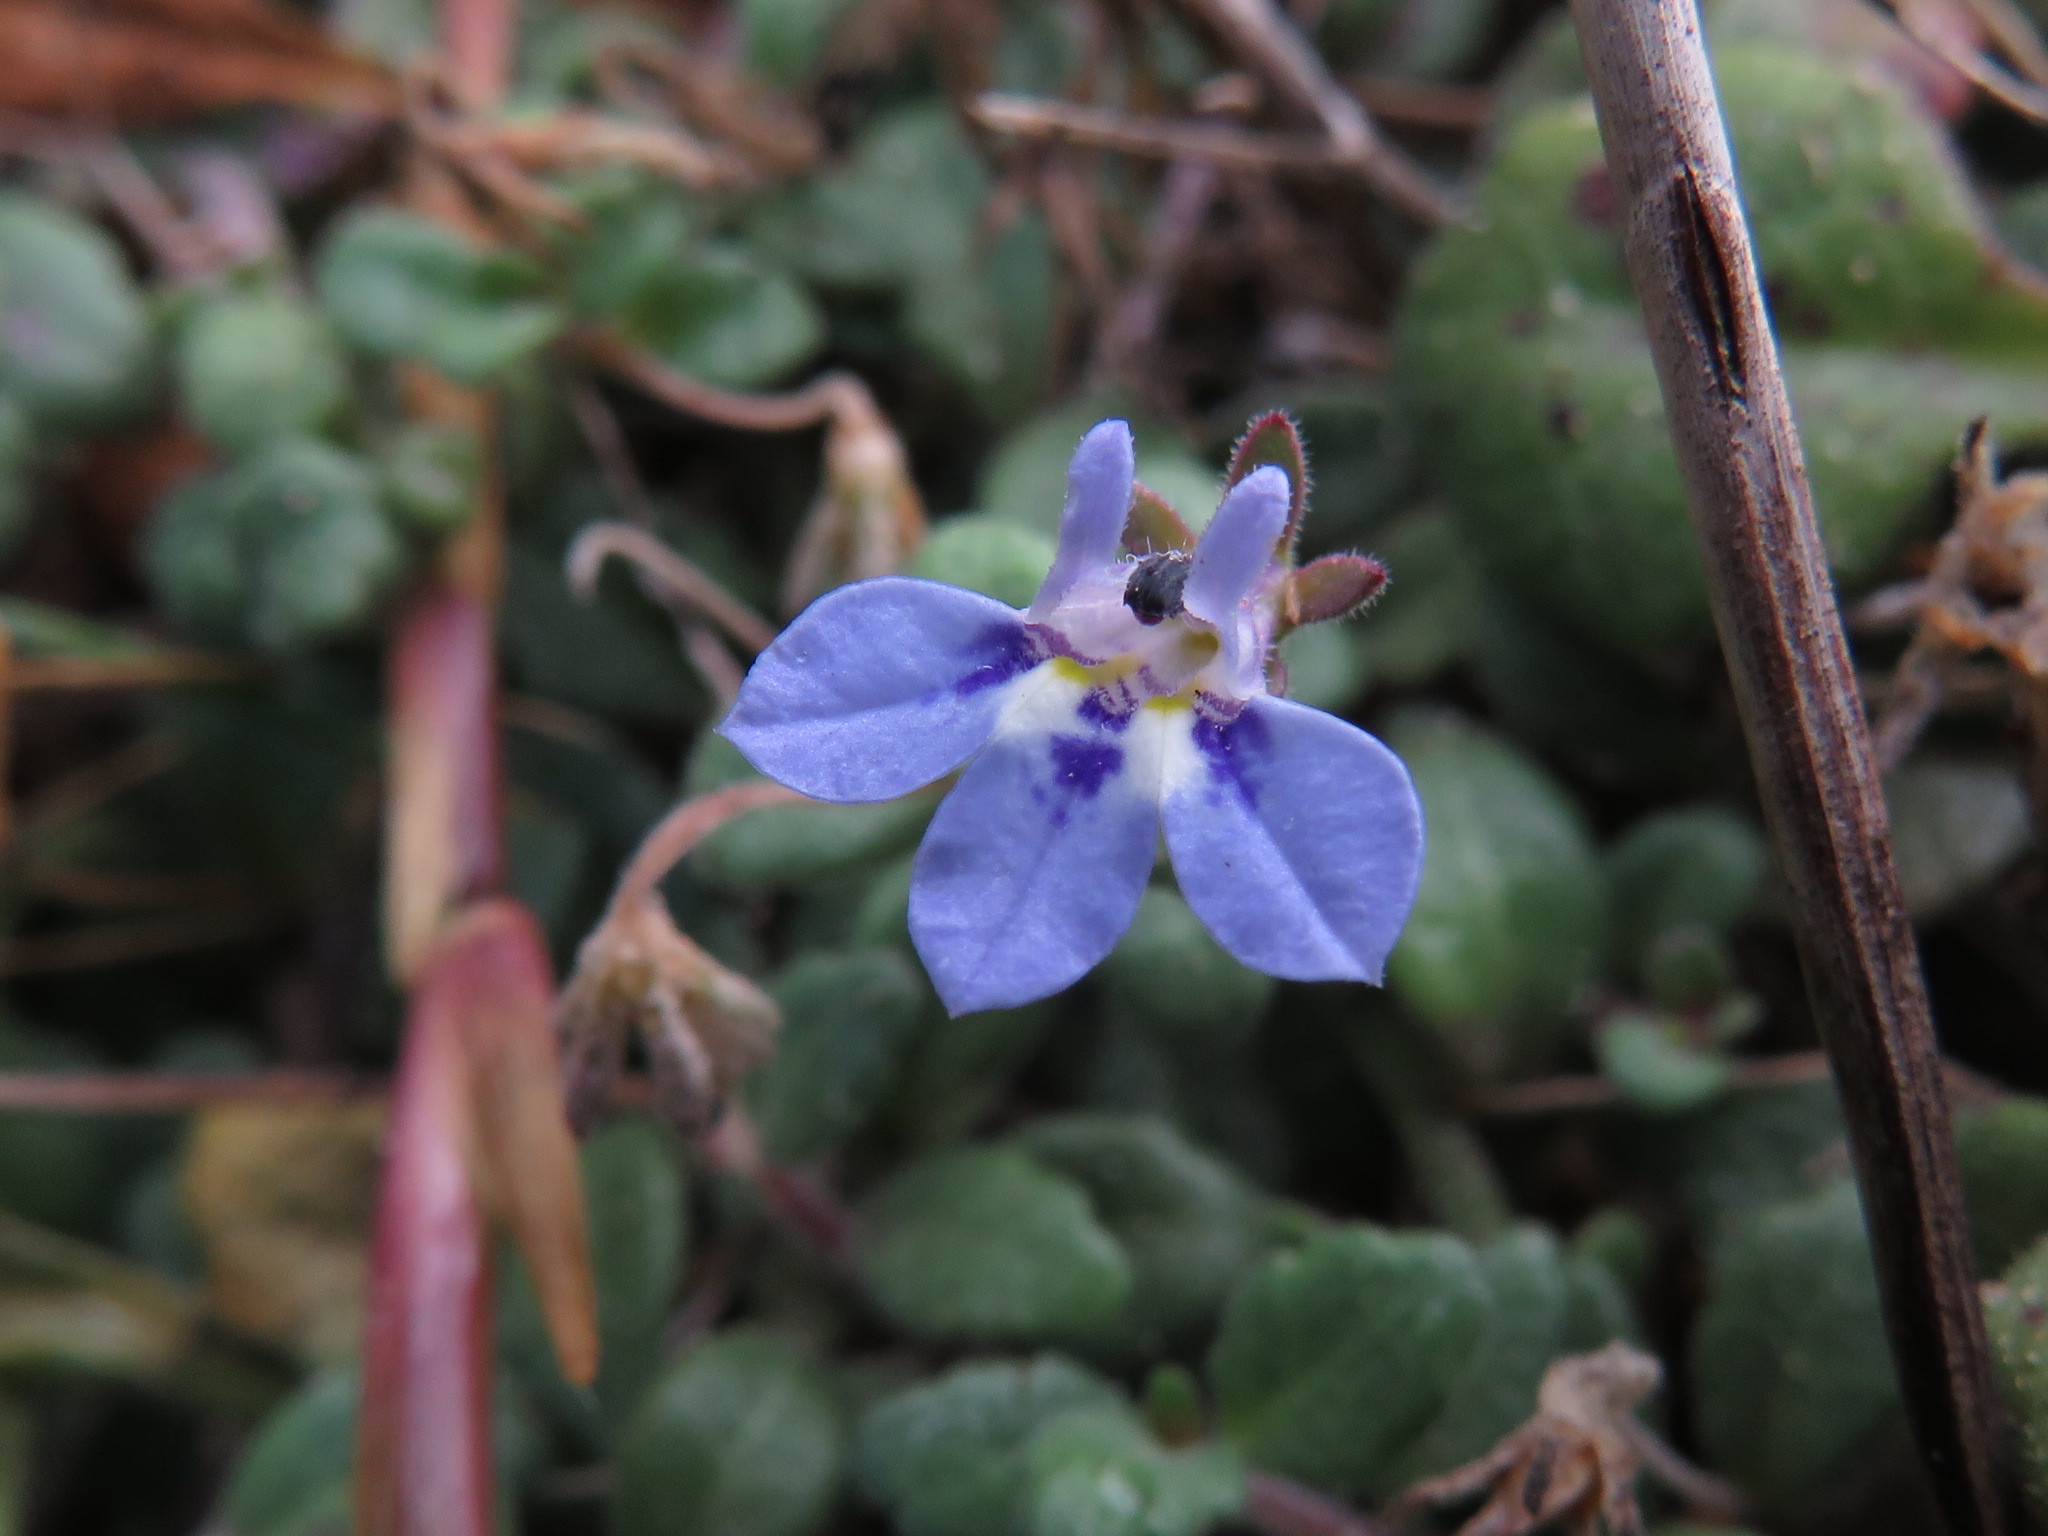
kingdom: Plantae
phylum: Tracheophyta
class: Magnoliopsida
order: Asterales
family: Campanulaceae
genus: Lobelia
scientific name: Lobelia boivinii
